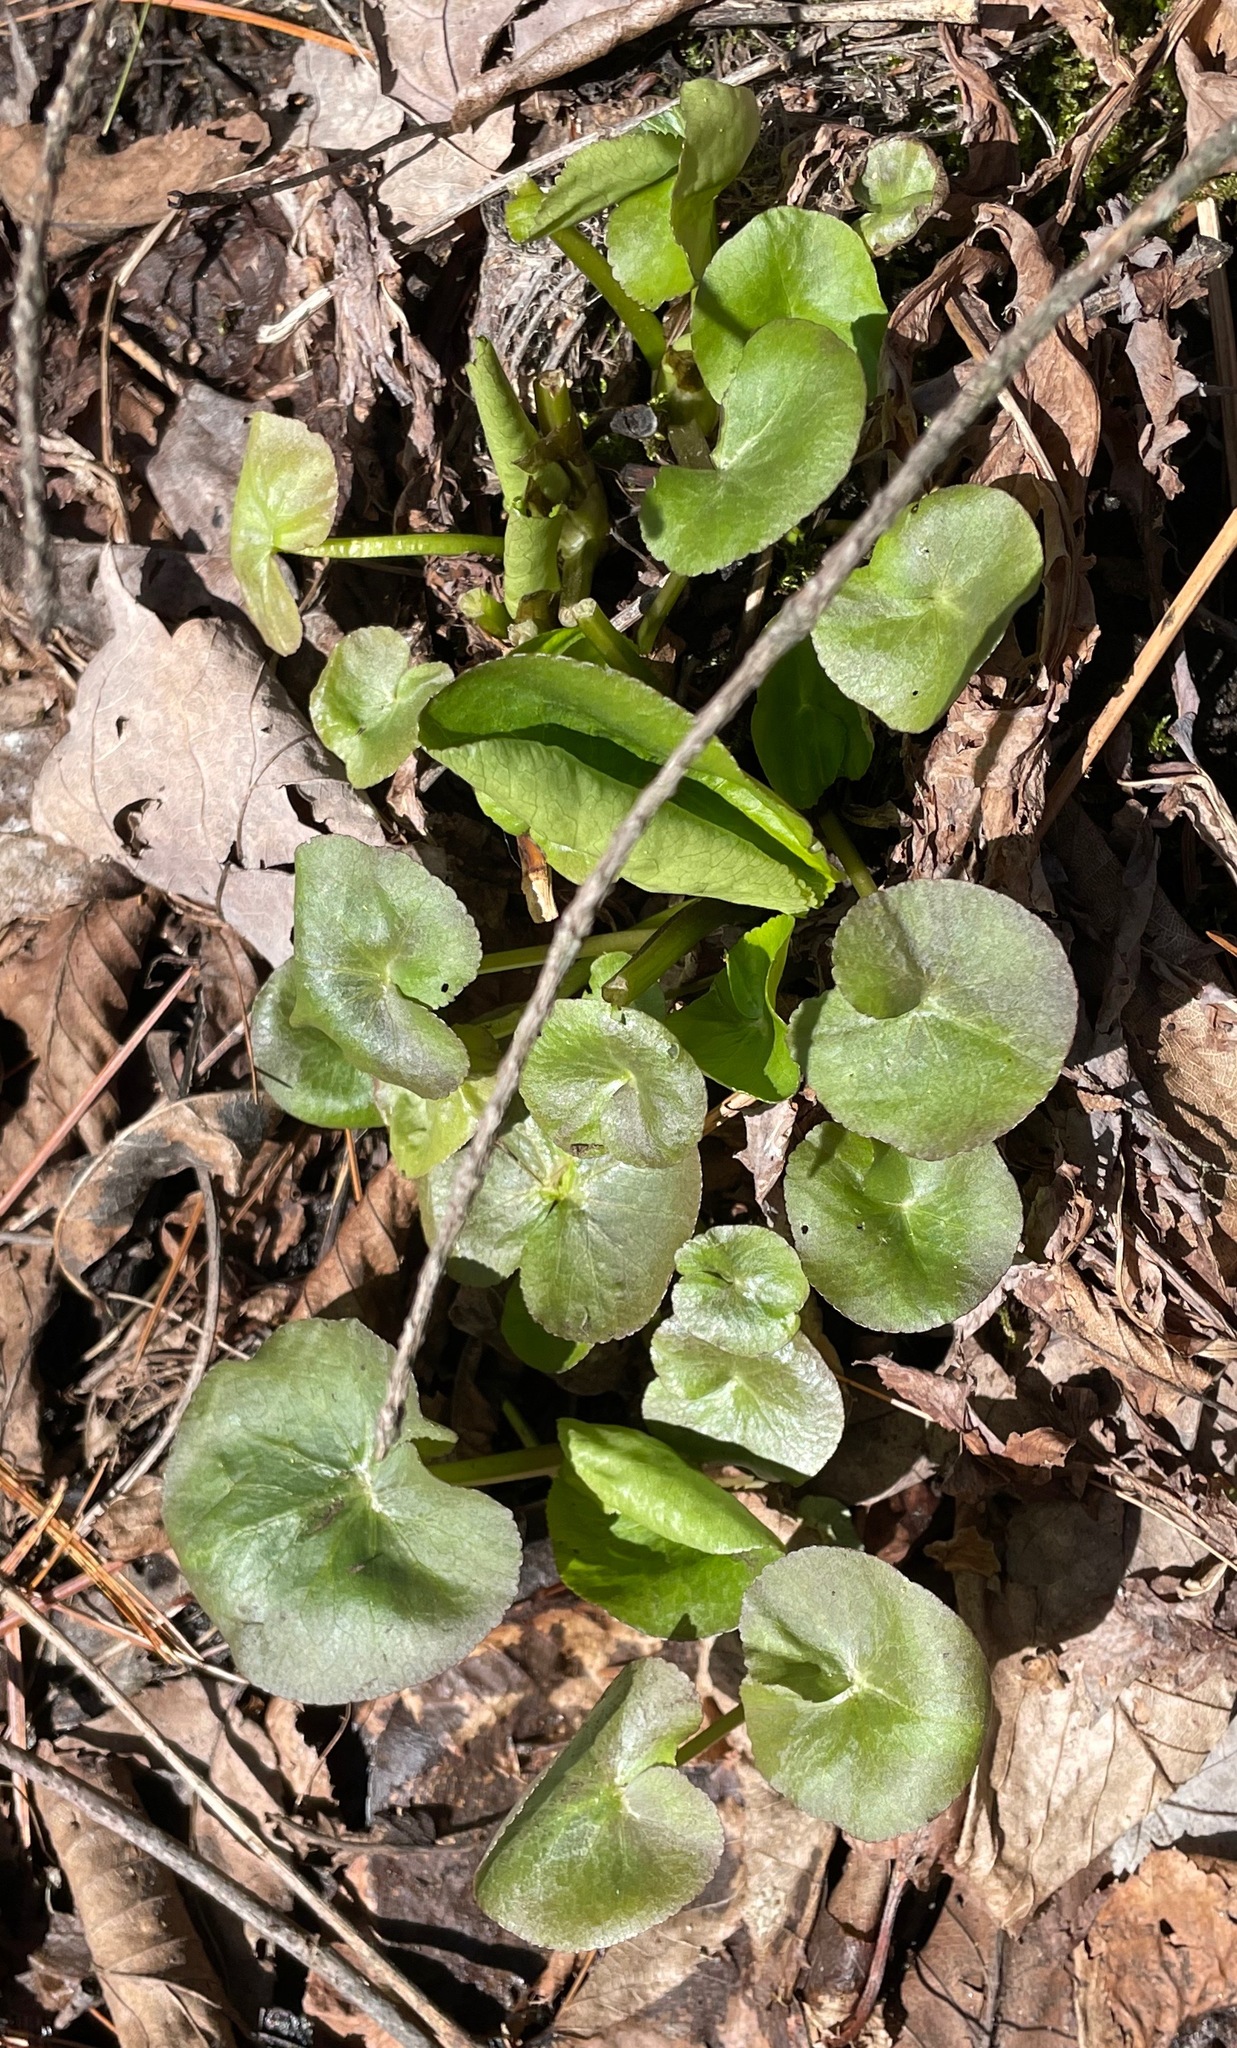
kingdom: Plantae
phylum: Tracheophyta
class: Magnoliopsida
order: Ranunculales
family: Ranunculaceae
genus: Caltha
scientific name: Caltha palustris
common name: Marsh marigold
